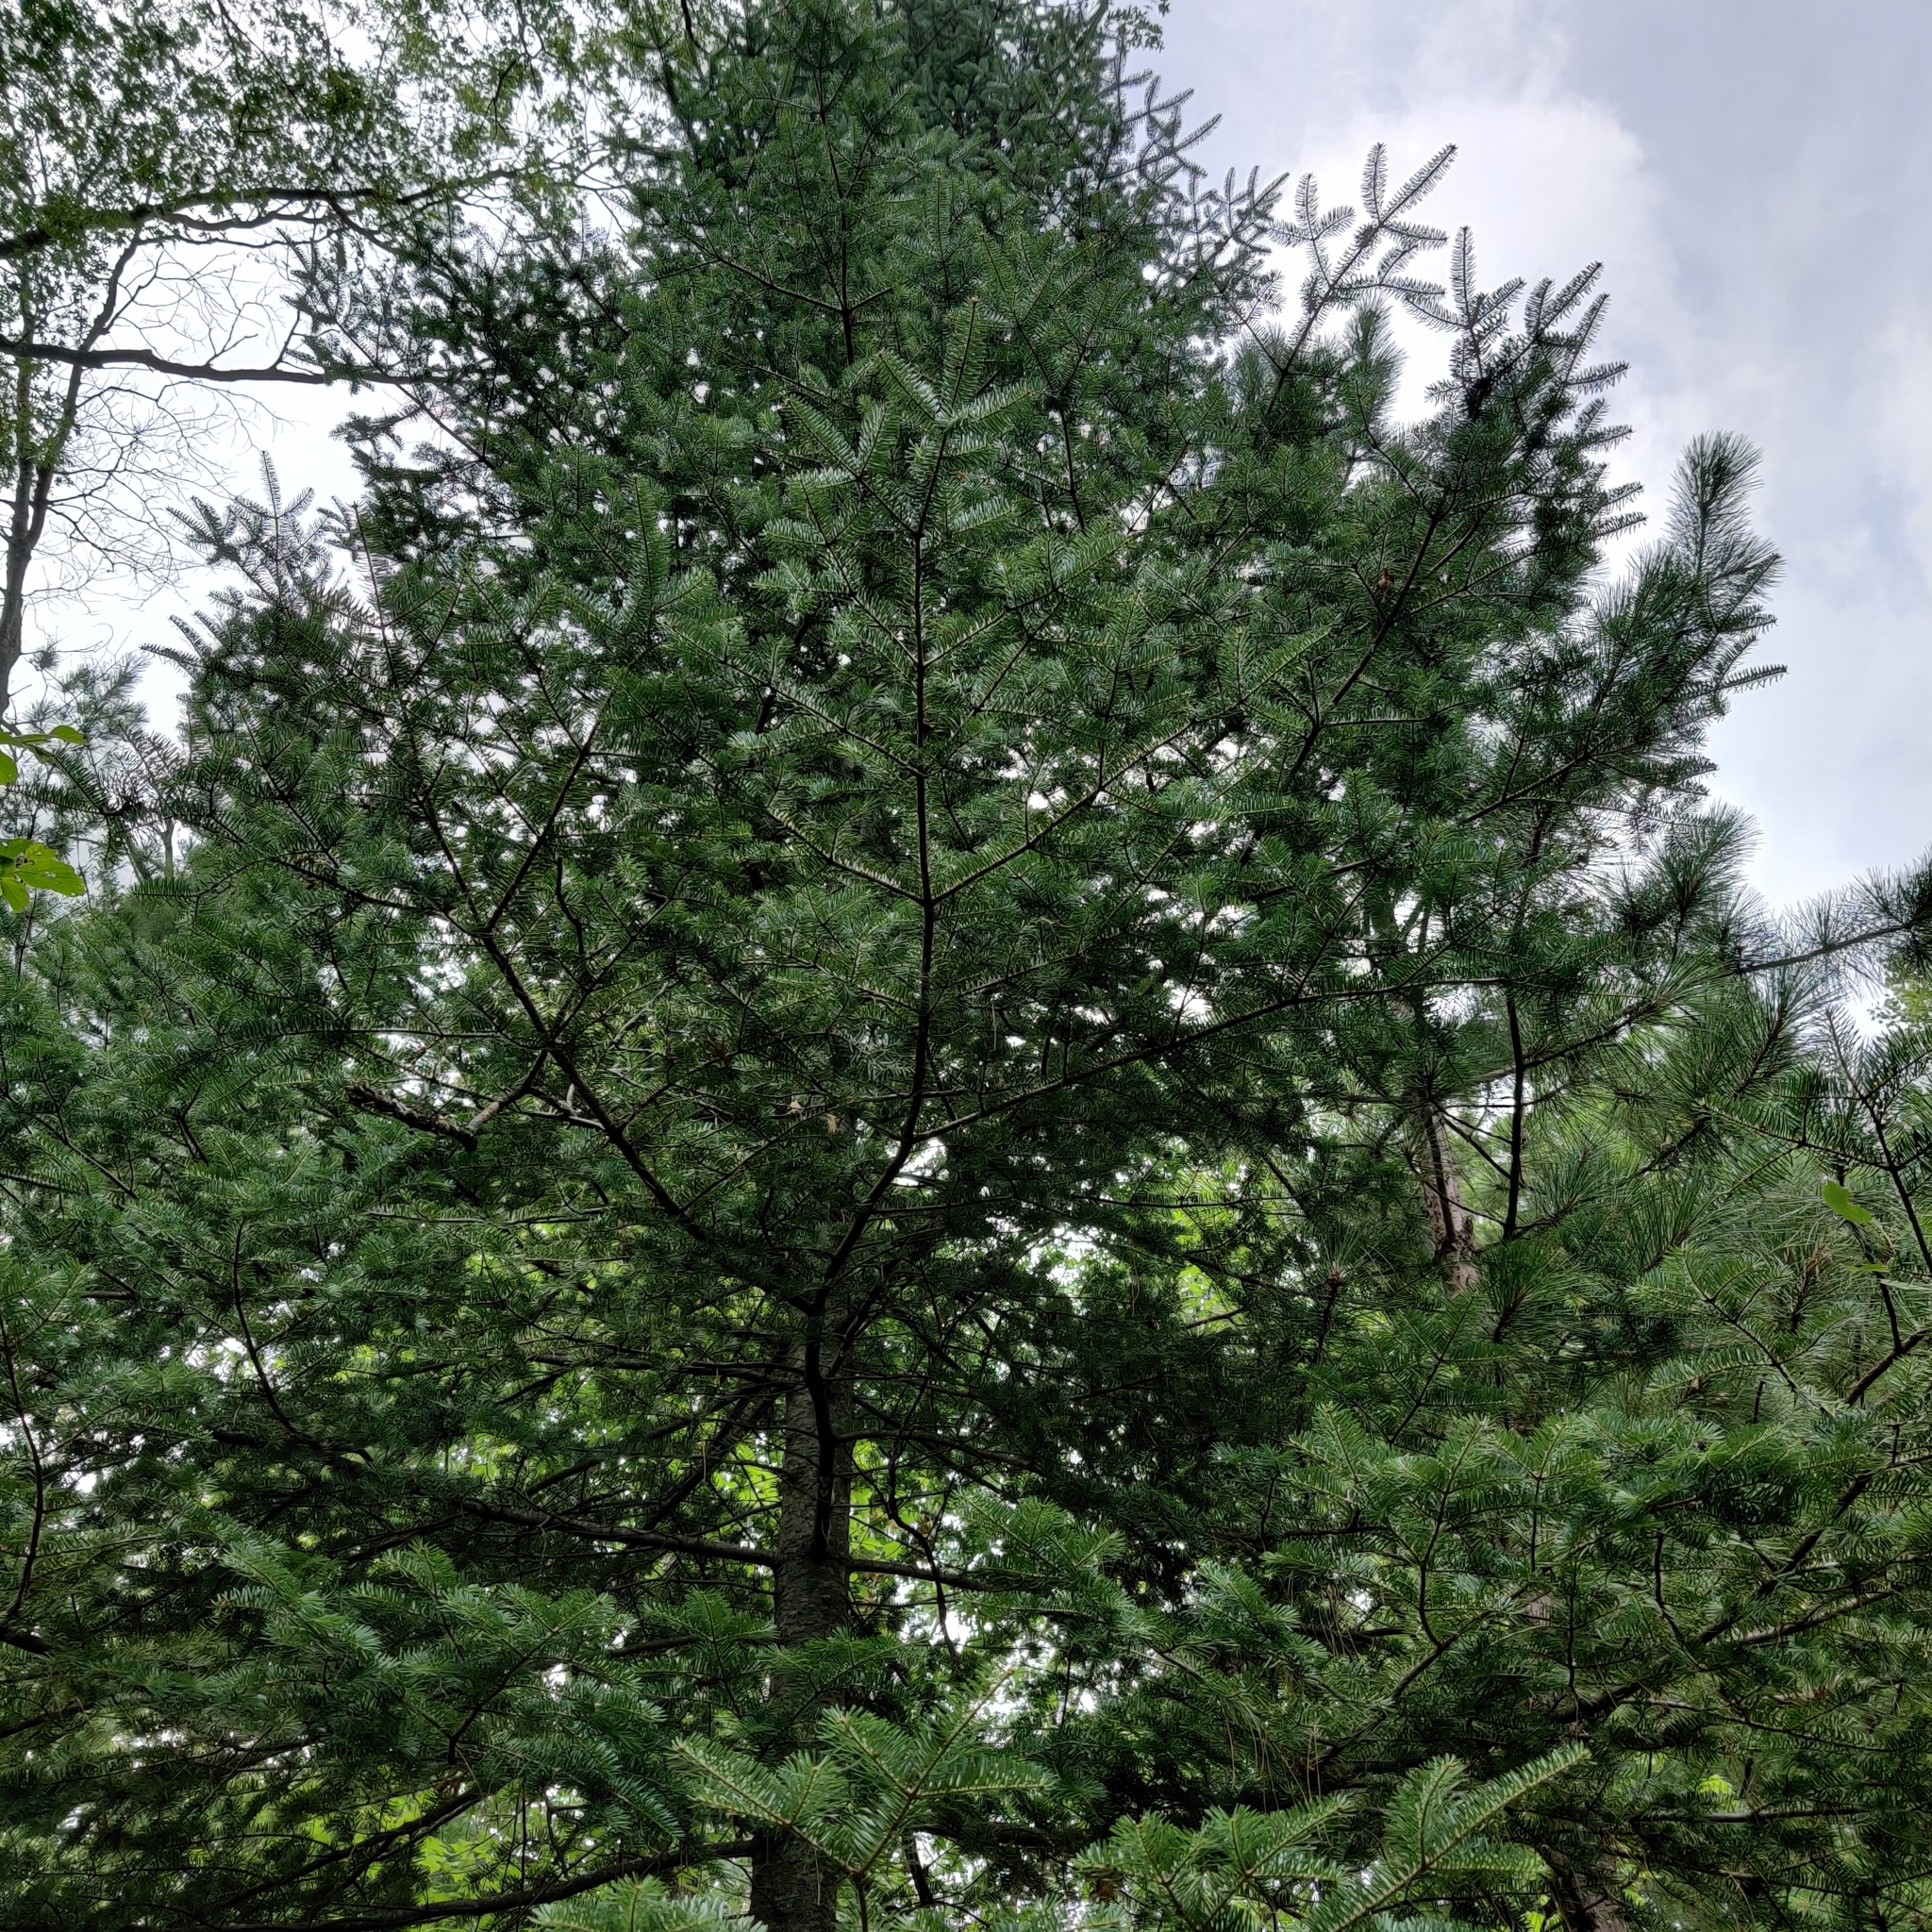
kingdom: Plantae
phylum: Tracheophyta
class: Pinopsida
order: Pinales
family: Pinaceae
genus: Abies
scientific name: Abies balsamea
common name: Balsam fir
